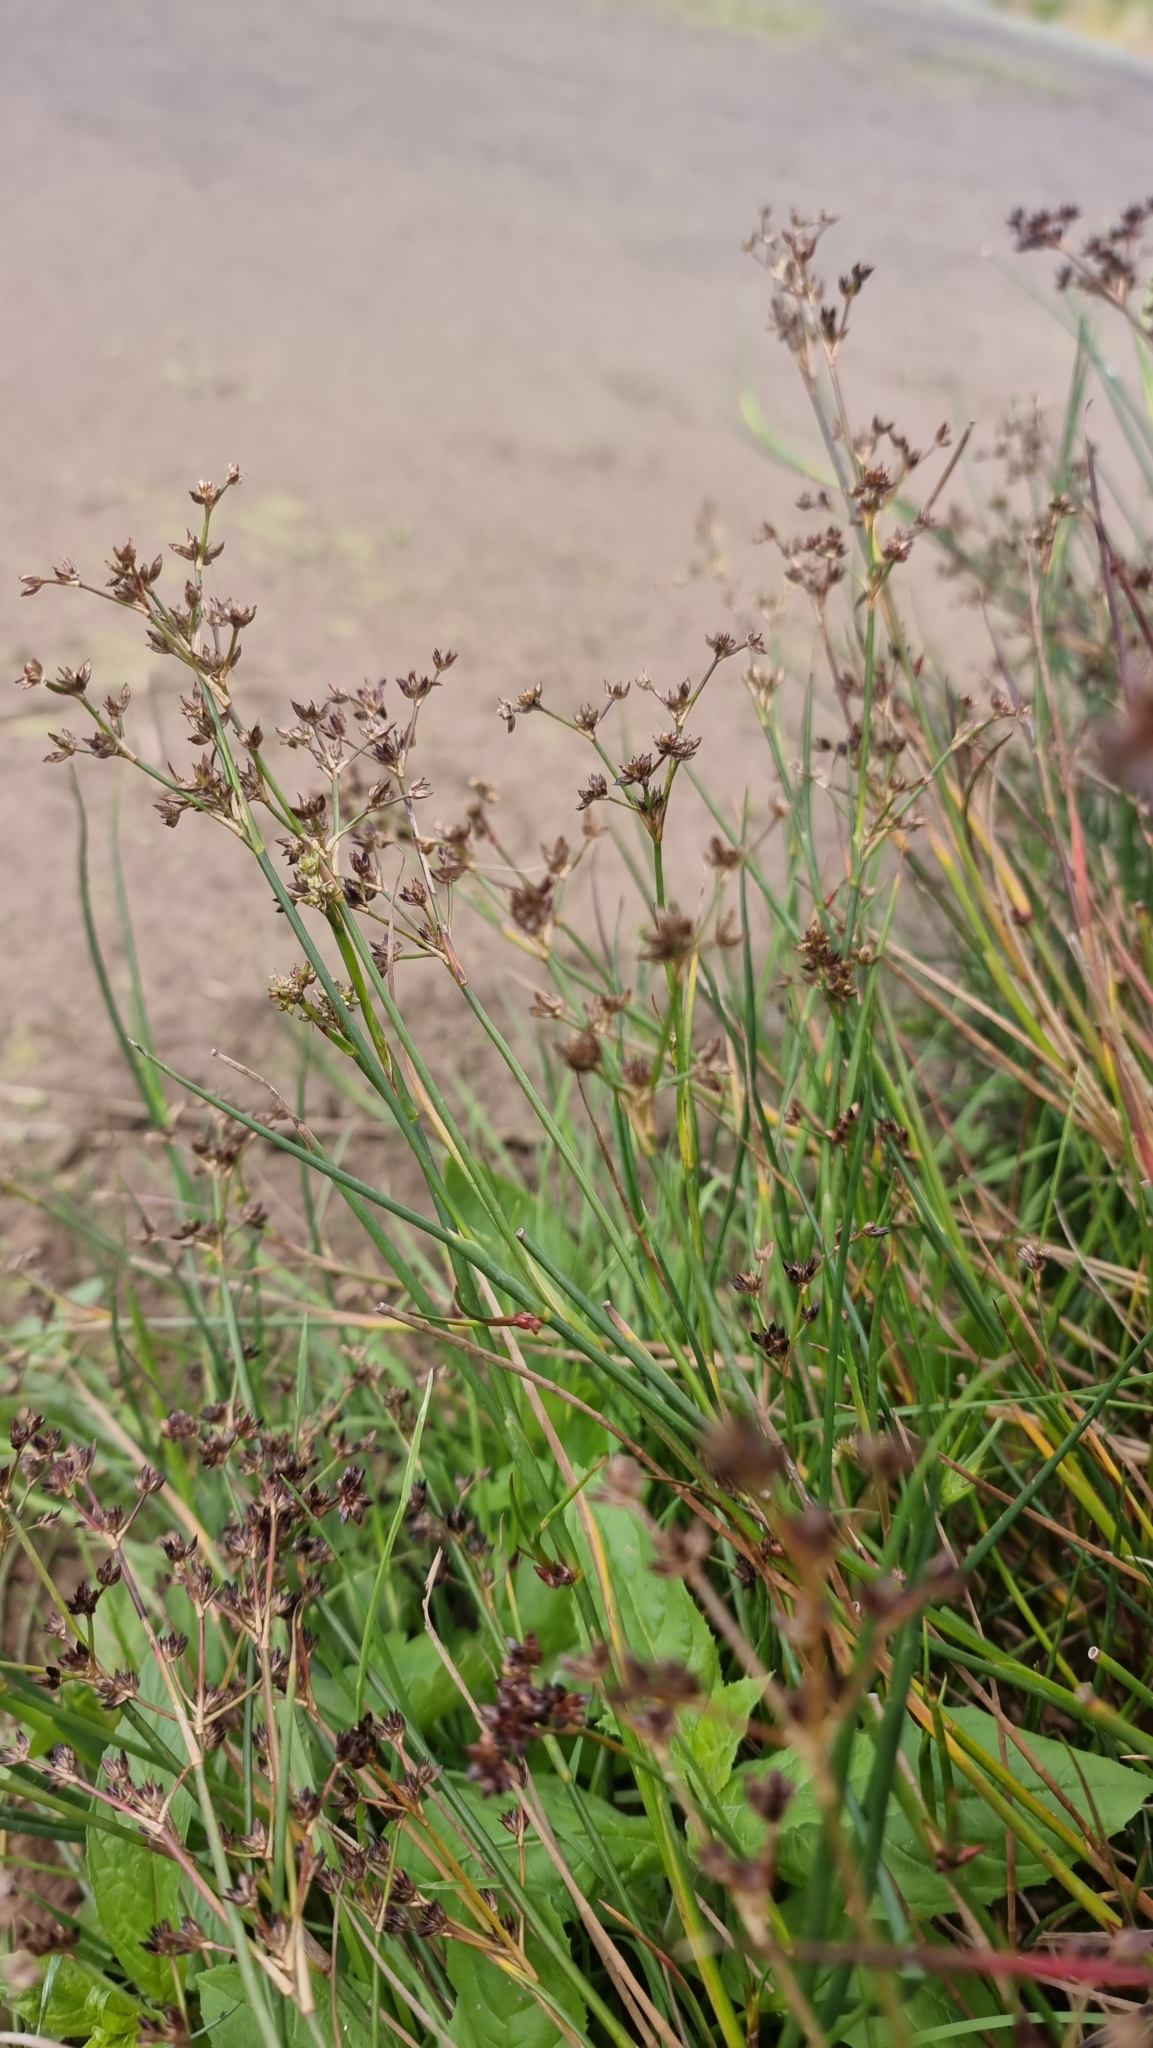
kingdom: Plantae
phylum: Tracheophyta
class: Liliopsida
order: Poales
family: Juncaceae
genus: Juncus
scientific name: Juncus articulatus
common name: Jointed rush
